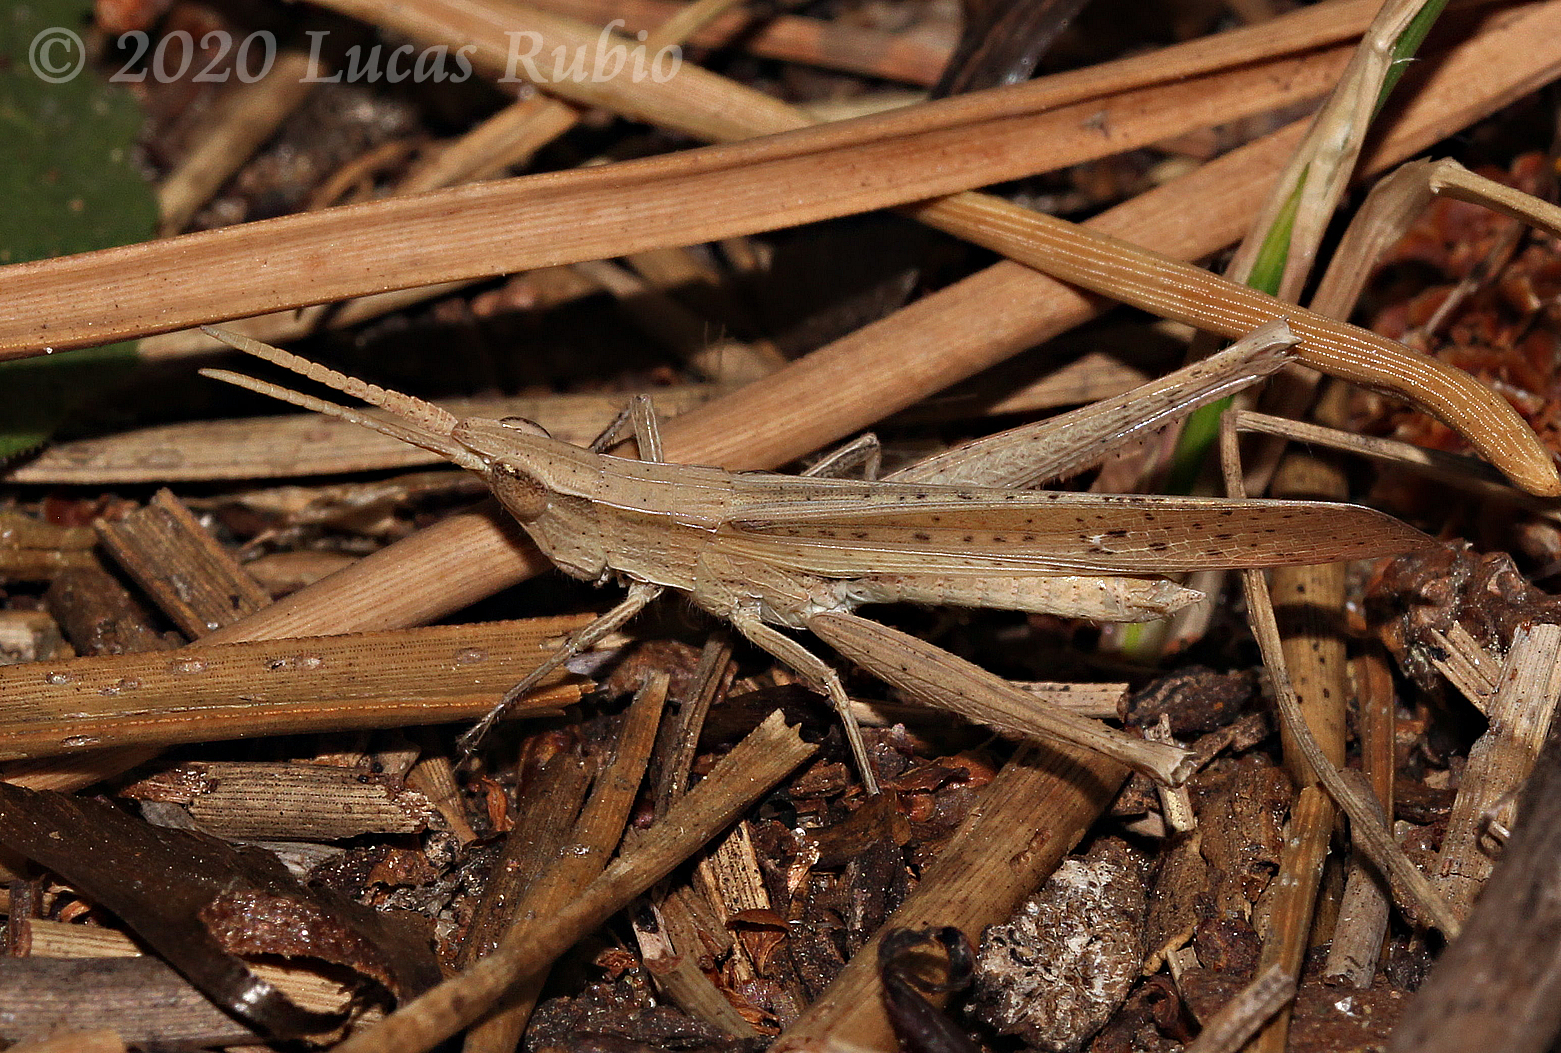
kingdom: Animalia
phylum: Arthropoda
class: Insecta
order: Orthoptera
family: Acrididae
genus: Allotruxalis
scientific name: Allotruxalis gracilis
